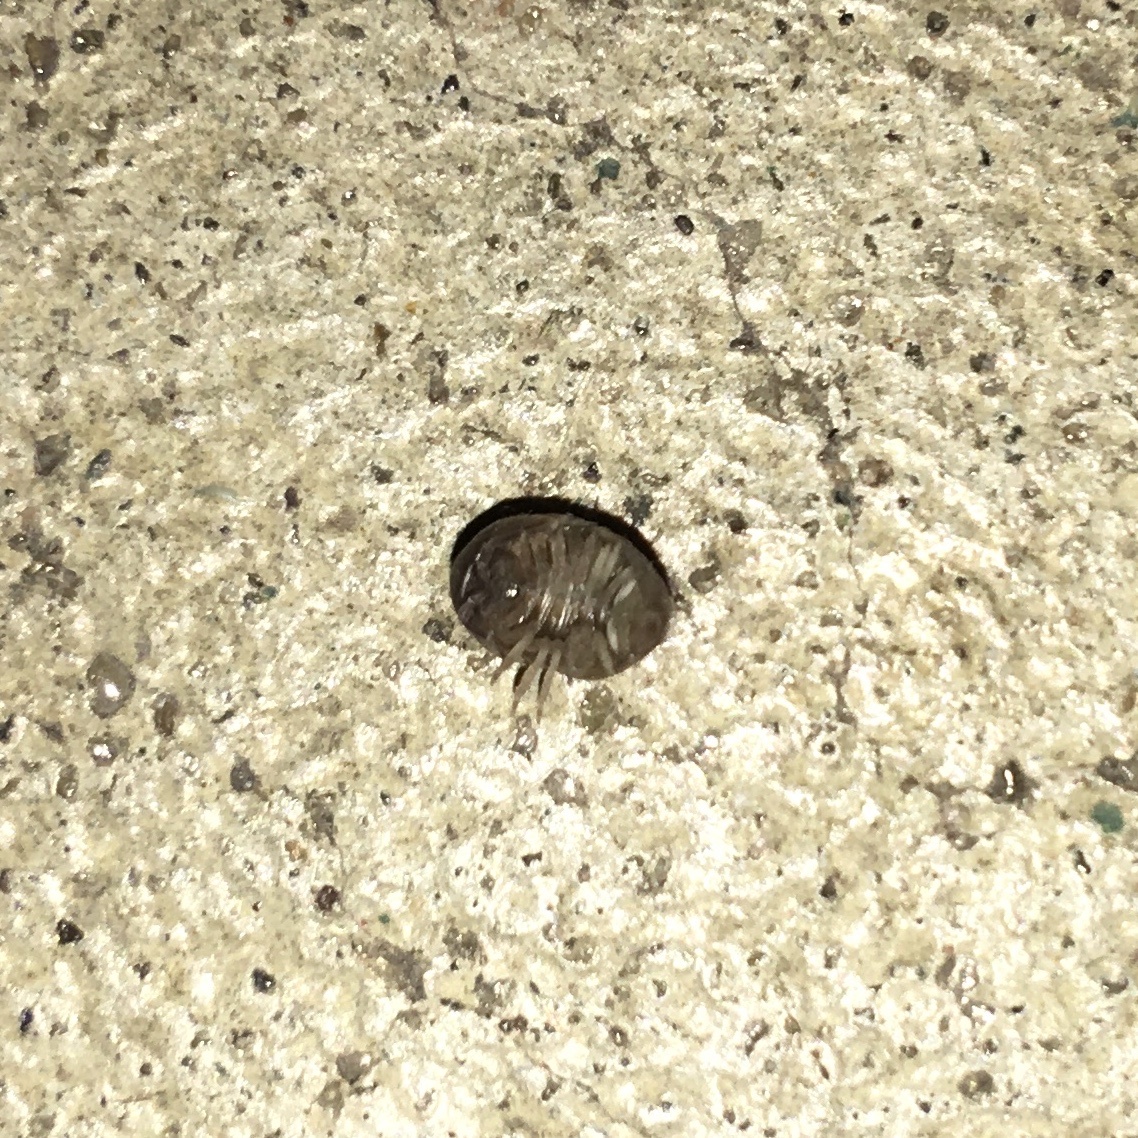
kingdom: Animalia
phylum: Arthropoda
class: Malacostraca
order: Isopoda
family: Armadillidiidae
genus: Armadillidium
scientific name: Armadillidium vulgare
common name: Common pill woodlouse
